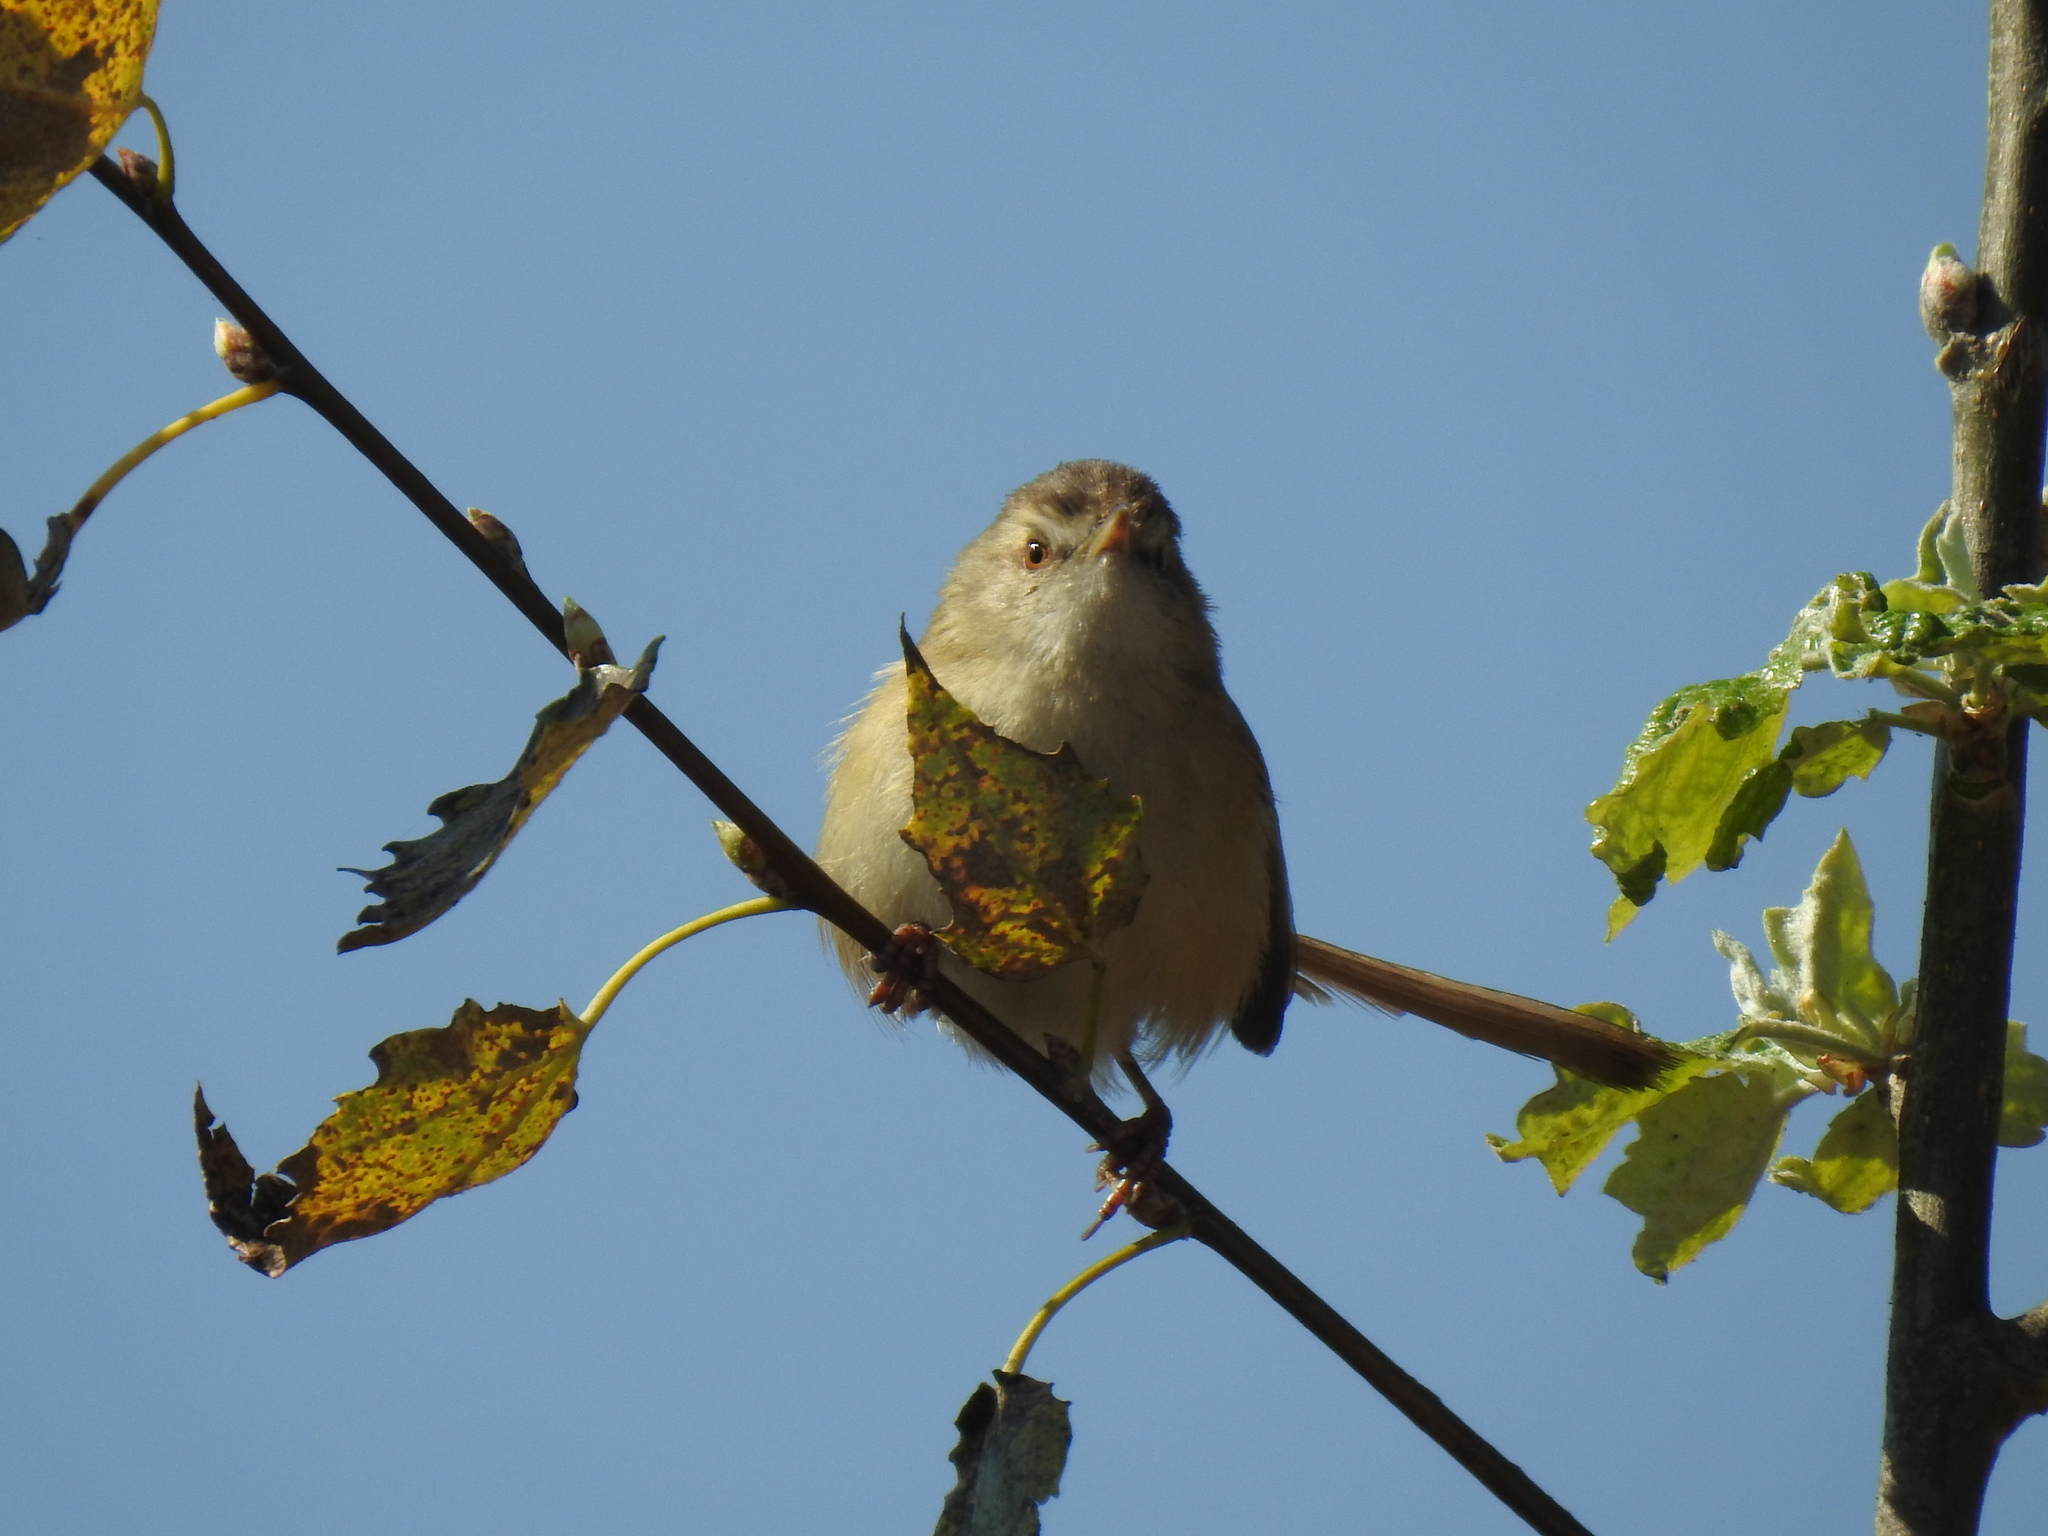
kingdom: Animalia
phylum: Chordata
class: Aves
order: Passeriformes
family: Cisticolidae
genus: Prinia
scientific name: Prinia subflava
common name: Tawny-flanked prinia
